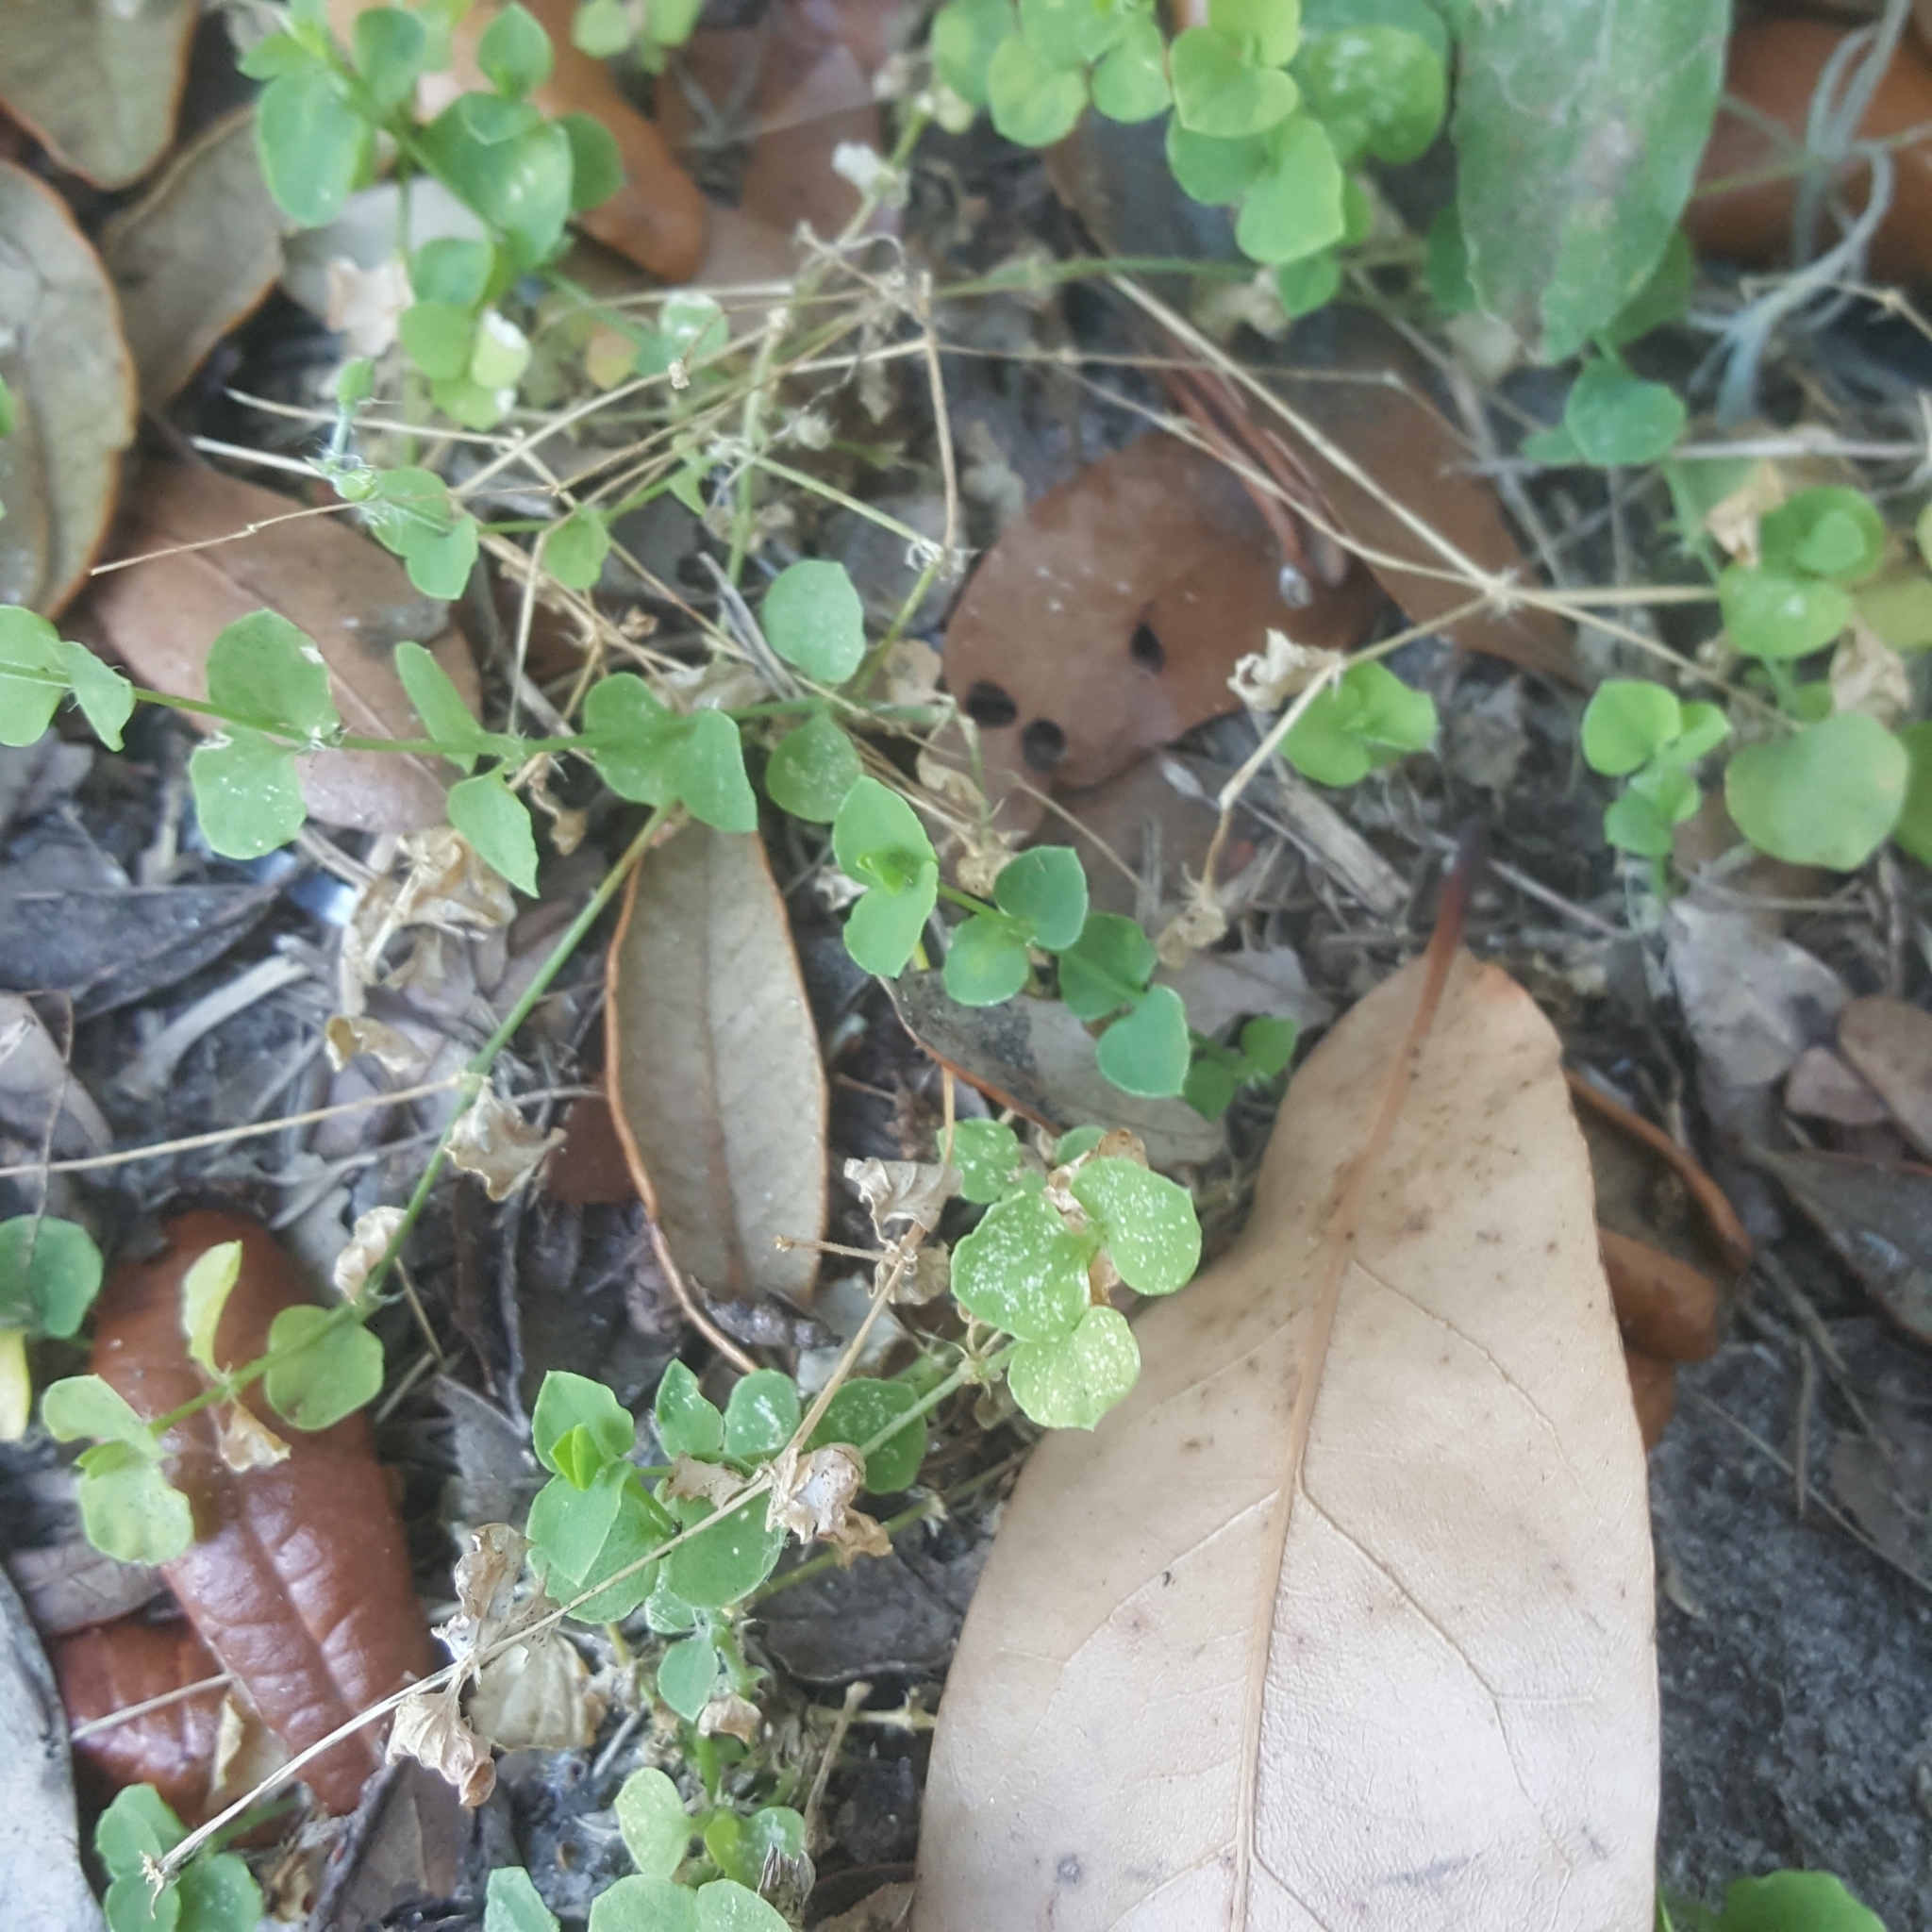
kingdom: Plantae
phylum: Tracheophyta
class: Magnoliopsida
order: Caryophyllales
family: Caryophyllaceae
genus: Drymaria
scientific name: Drymaria cordata
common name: Whitesnow
